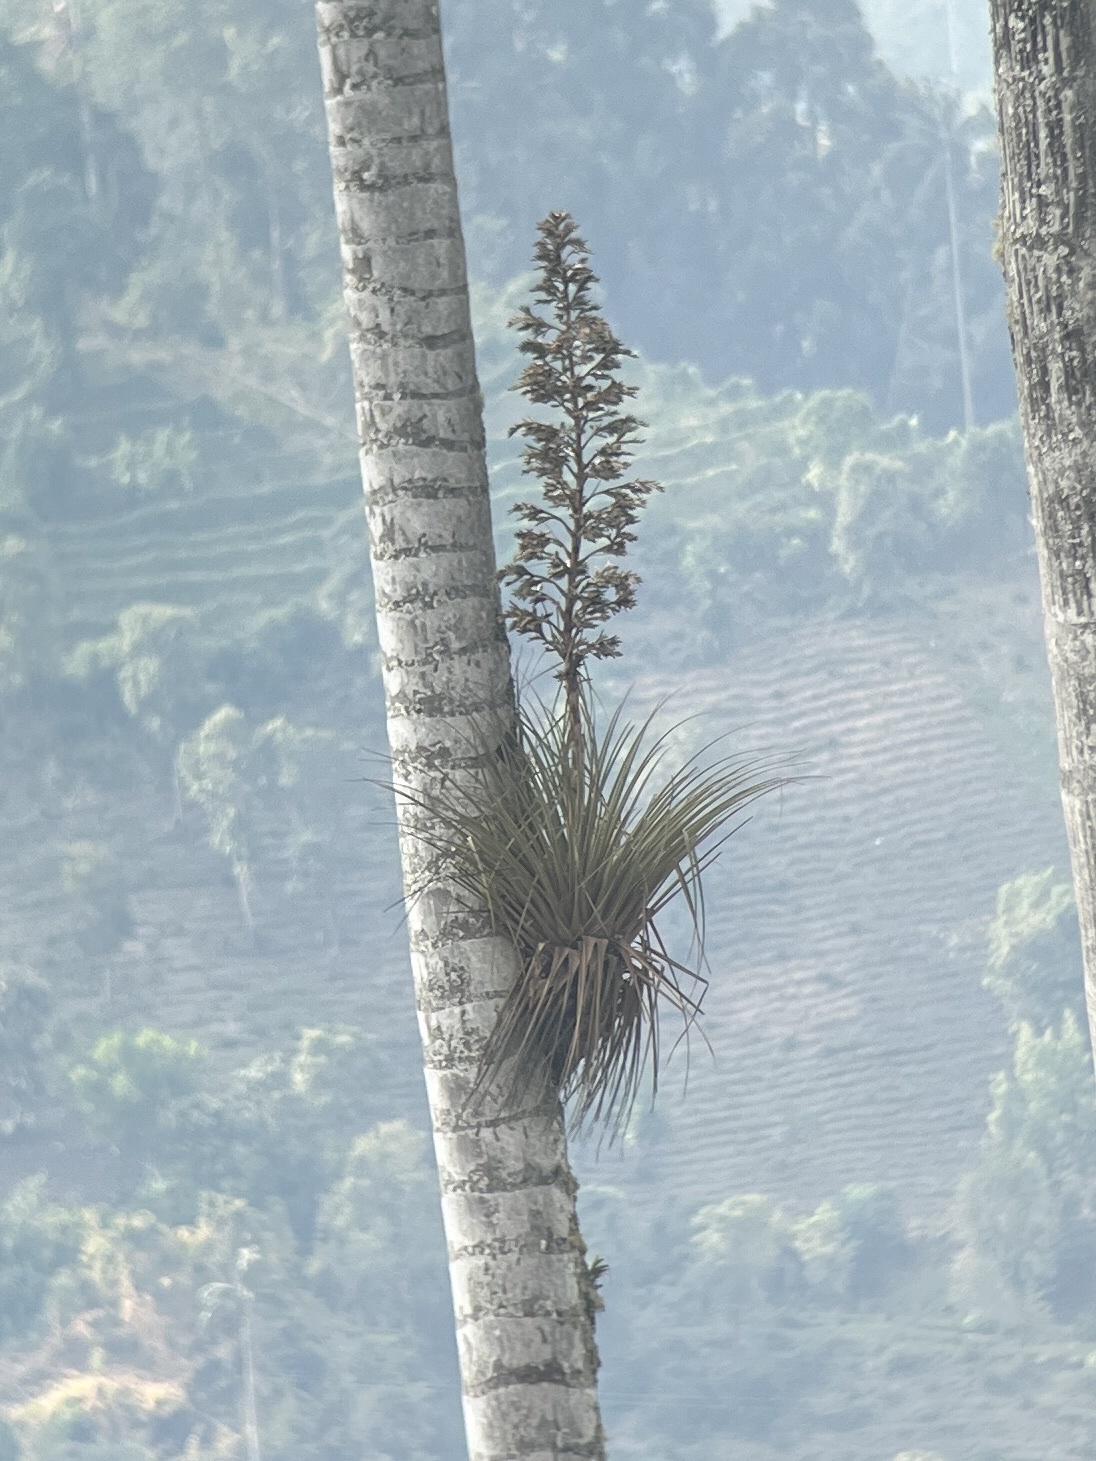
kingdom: Plantae
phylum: Tracheophyta
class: Liliopsida
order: Poales
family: Bromeliaceae
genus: Tillandsia
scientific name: Tillandsia longifolia
